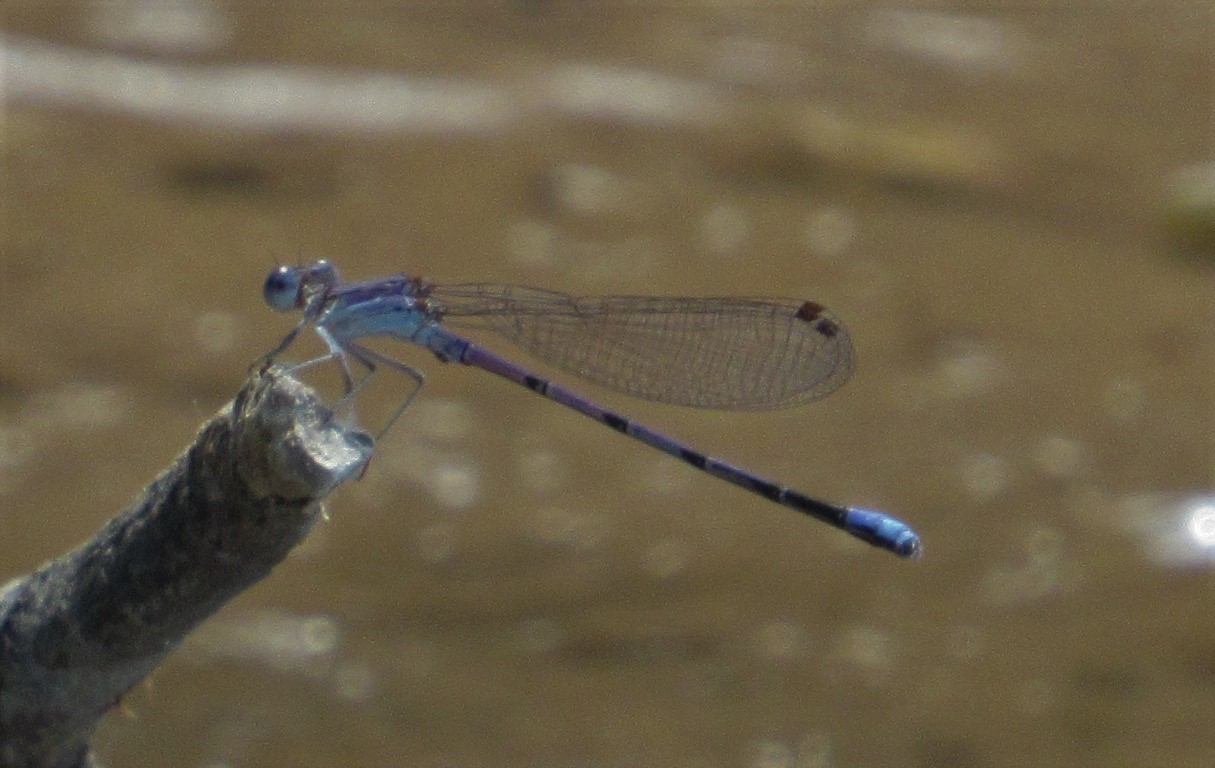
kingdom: Animalia
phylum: Arthropoda
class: Insecta
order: Odonata
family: Coenagrionidae
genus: Argia
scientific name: Argia fumipennis
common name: Variable dancer
